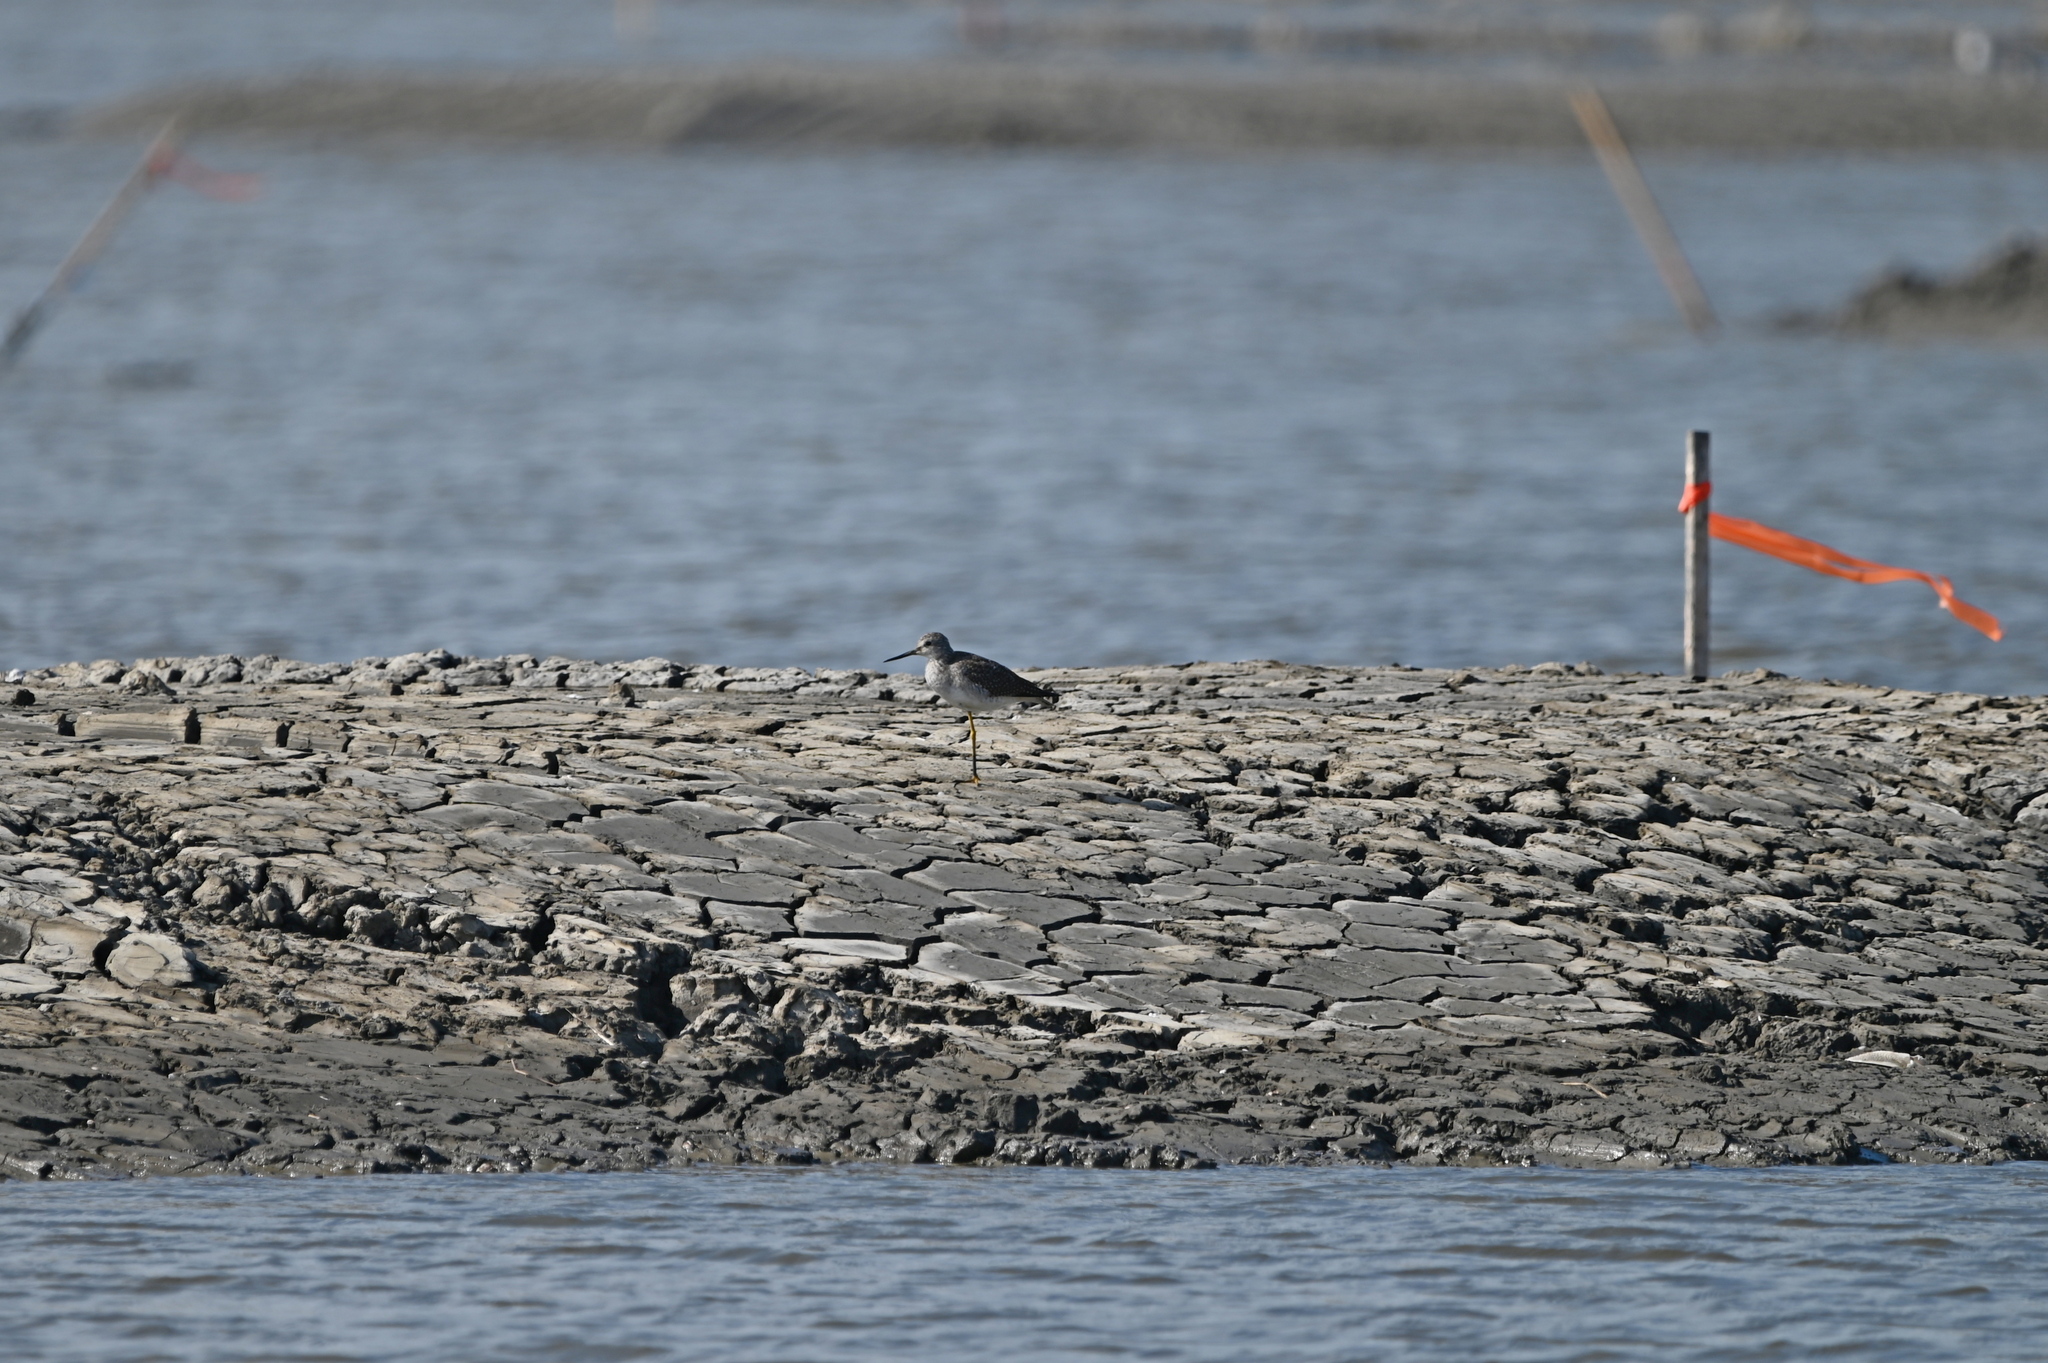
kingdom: Animalia
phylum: Chordata
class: Aves
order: Charadriiformes
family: Scolopacidae
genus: Tringa
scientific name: Tringa melanoleuca
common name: Greater yellowlegs
